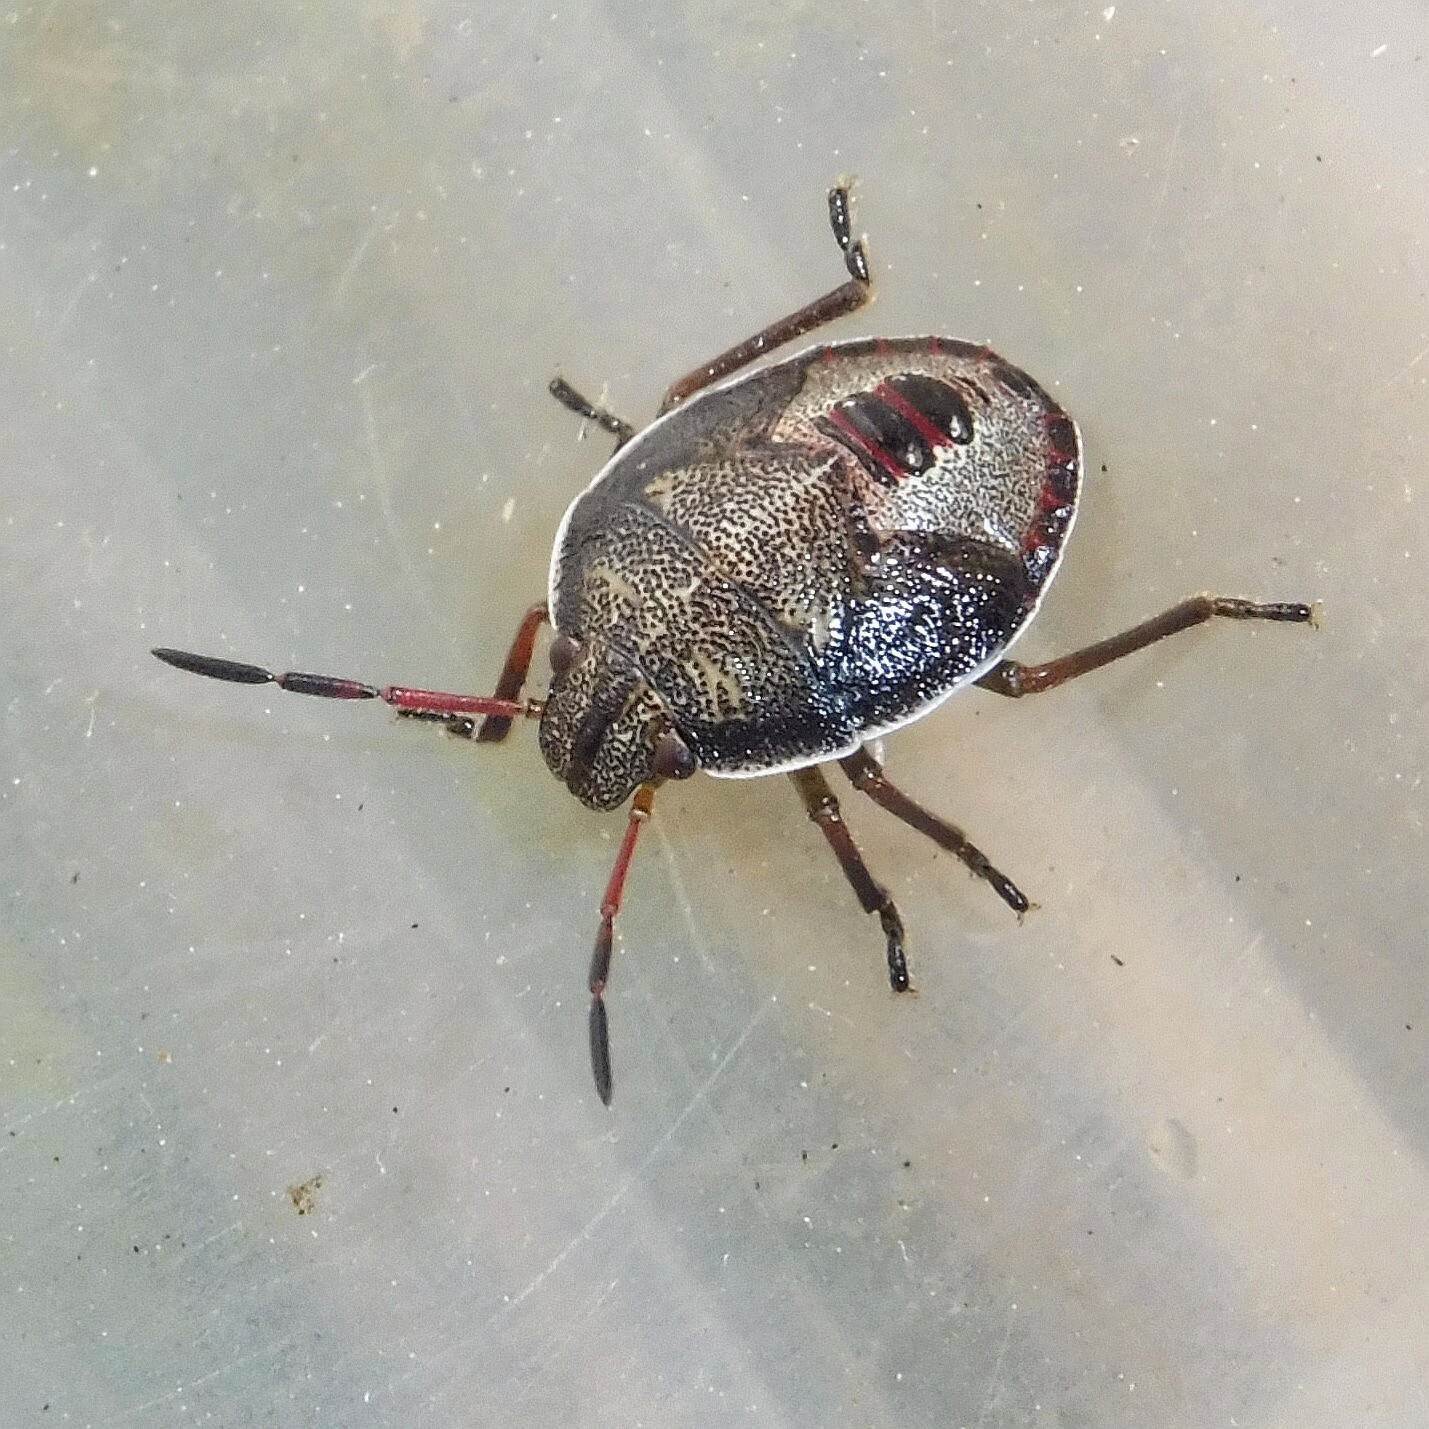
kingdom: Animalia
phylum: Arthropoda
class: Insecta
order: Hemiptera
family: Pentatomidae
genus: Piezodorus
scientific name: Piezodorus lituratus
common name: Stink bug
